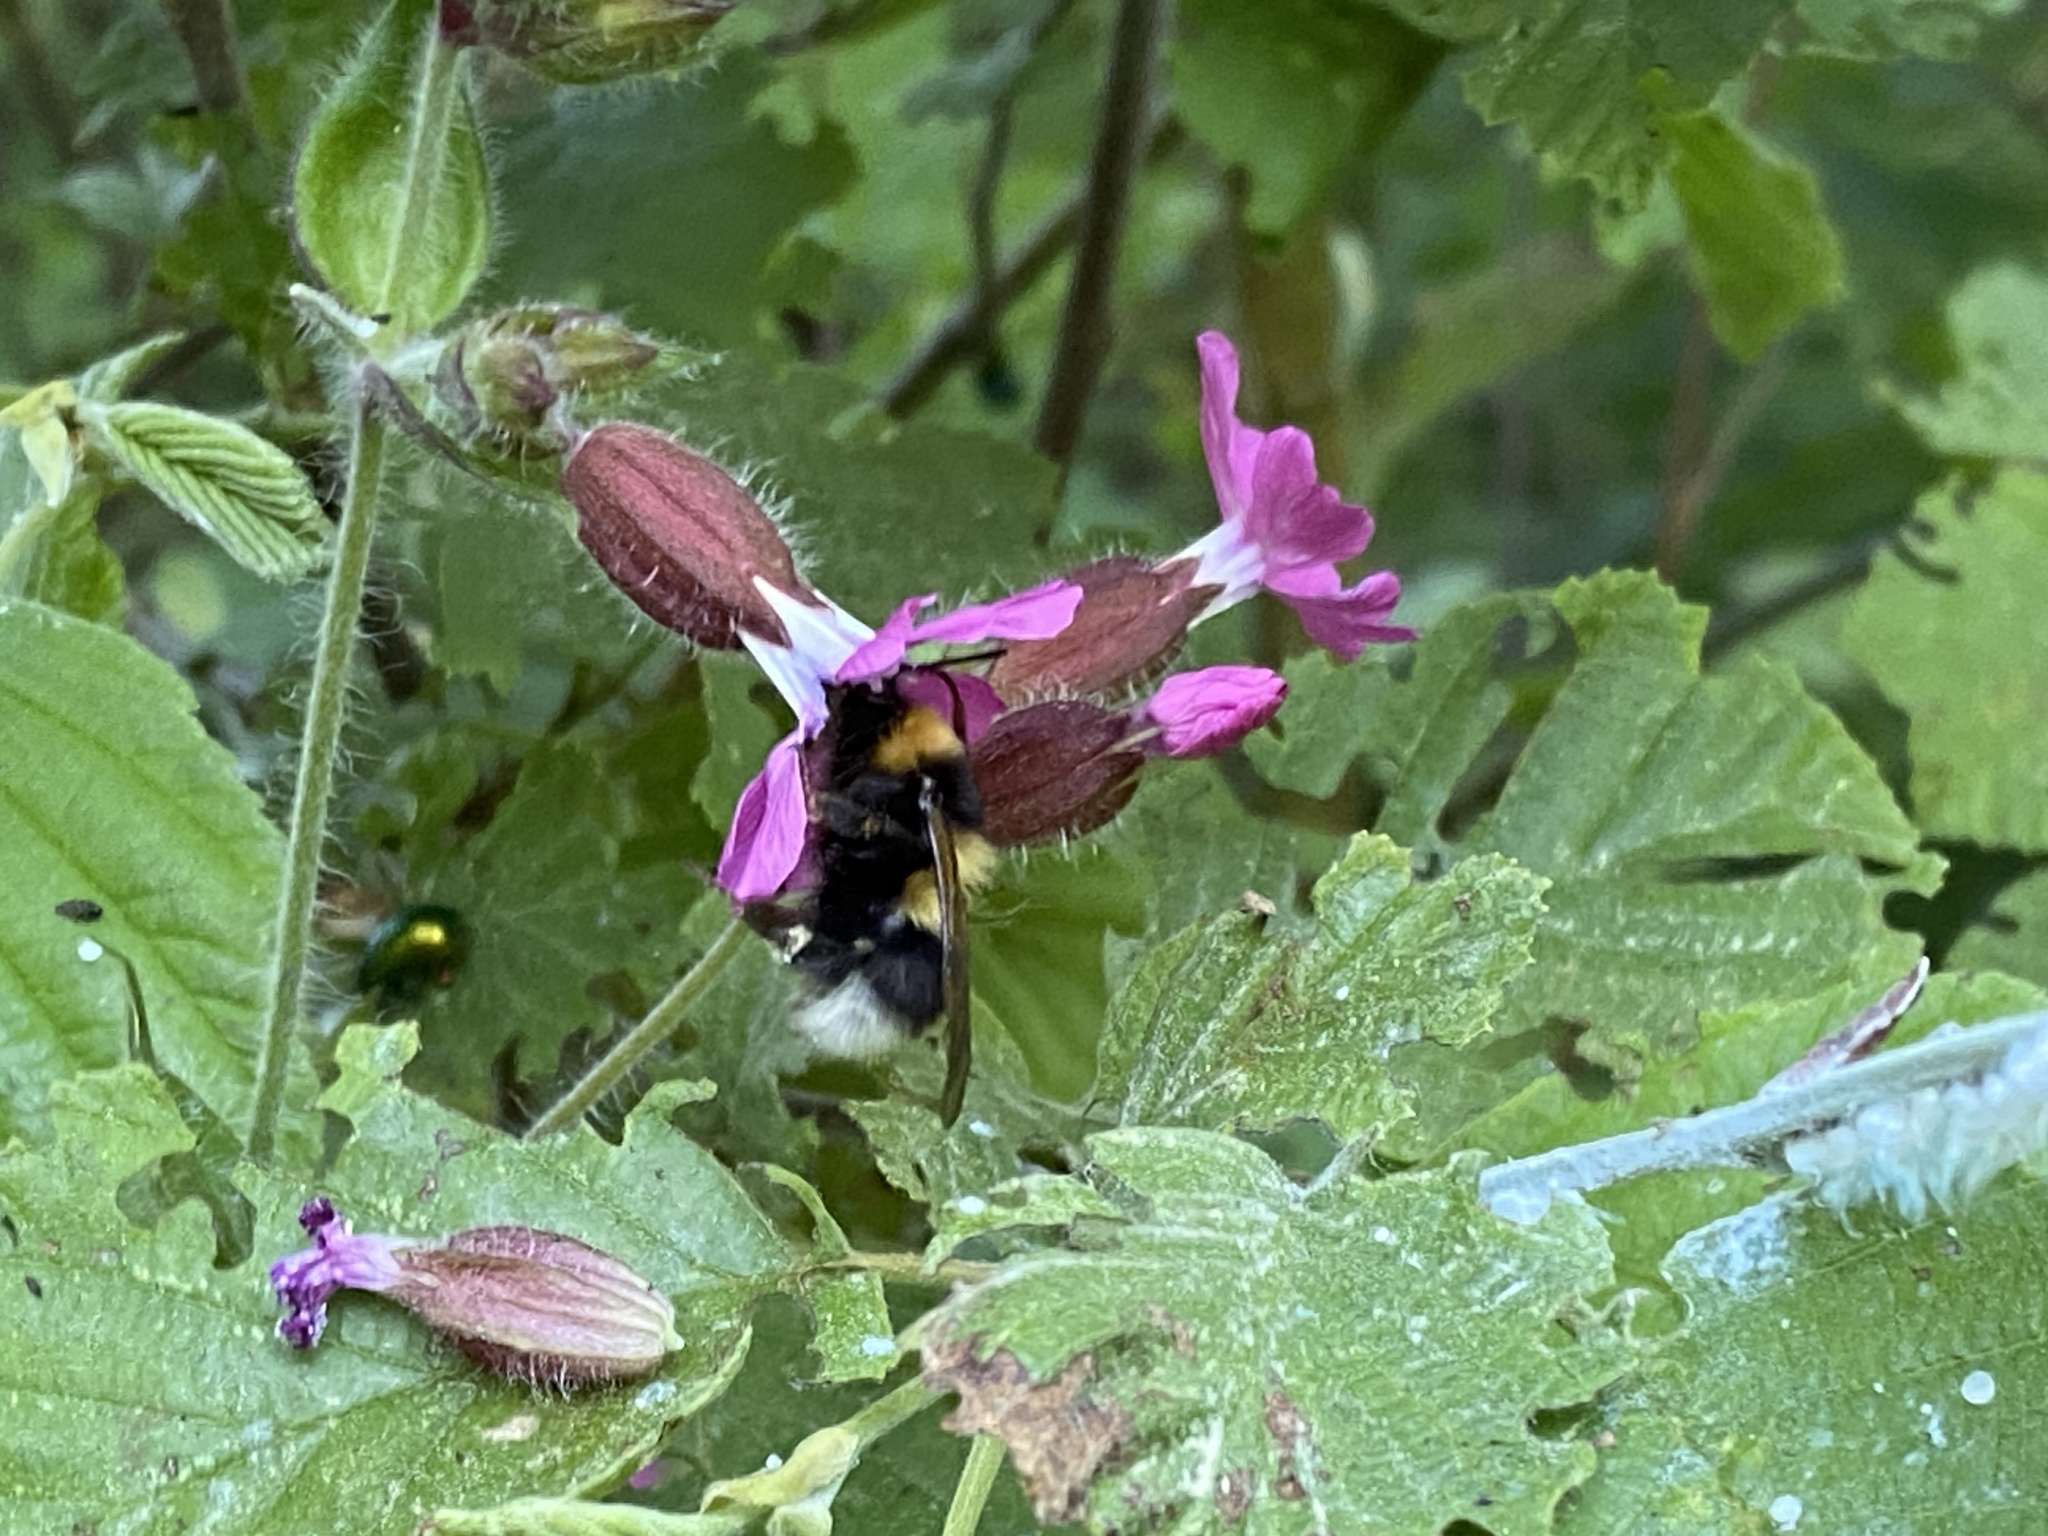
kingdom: Plantae
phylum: Tracheophyta
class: Magnoliopsida
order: Caryophyllales
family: Caryophyllaceae
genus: Silene
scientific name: Silene dioica
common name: Red campion
